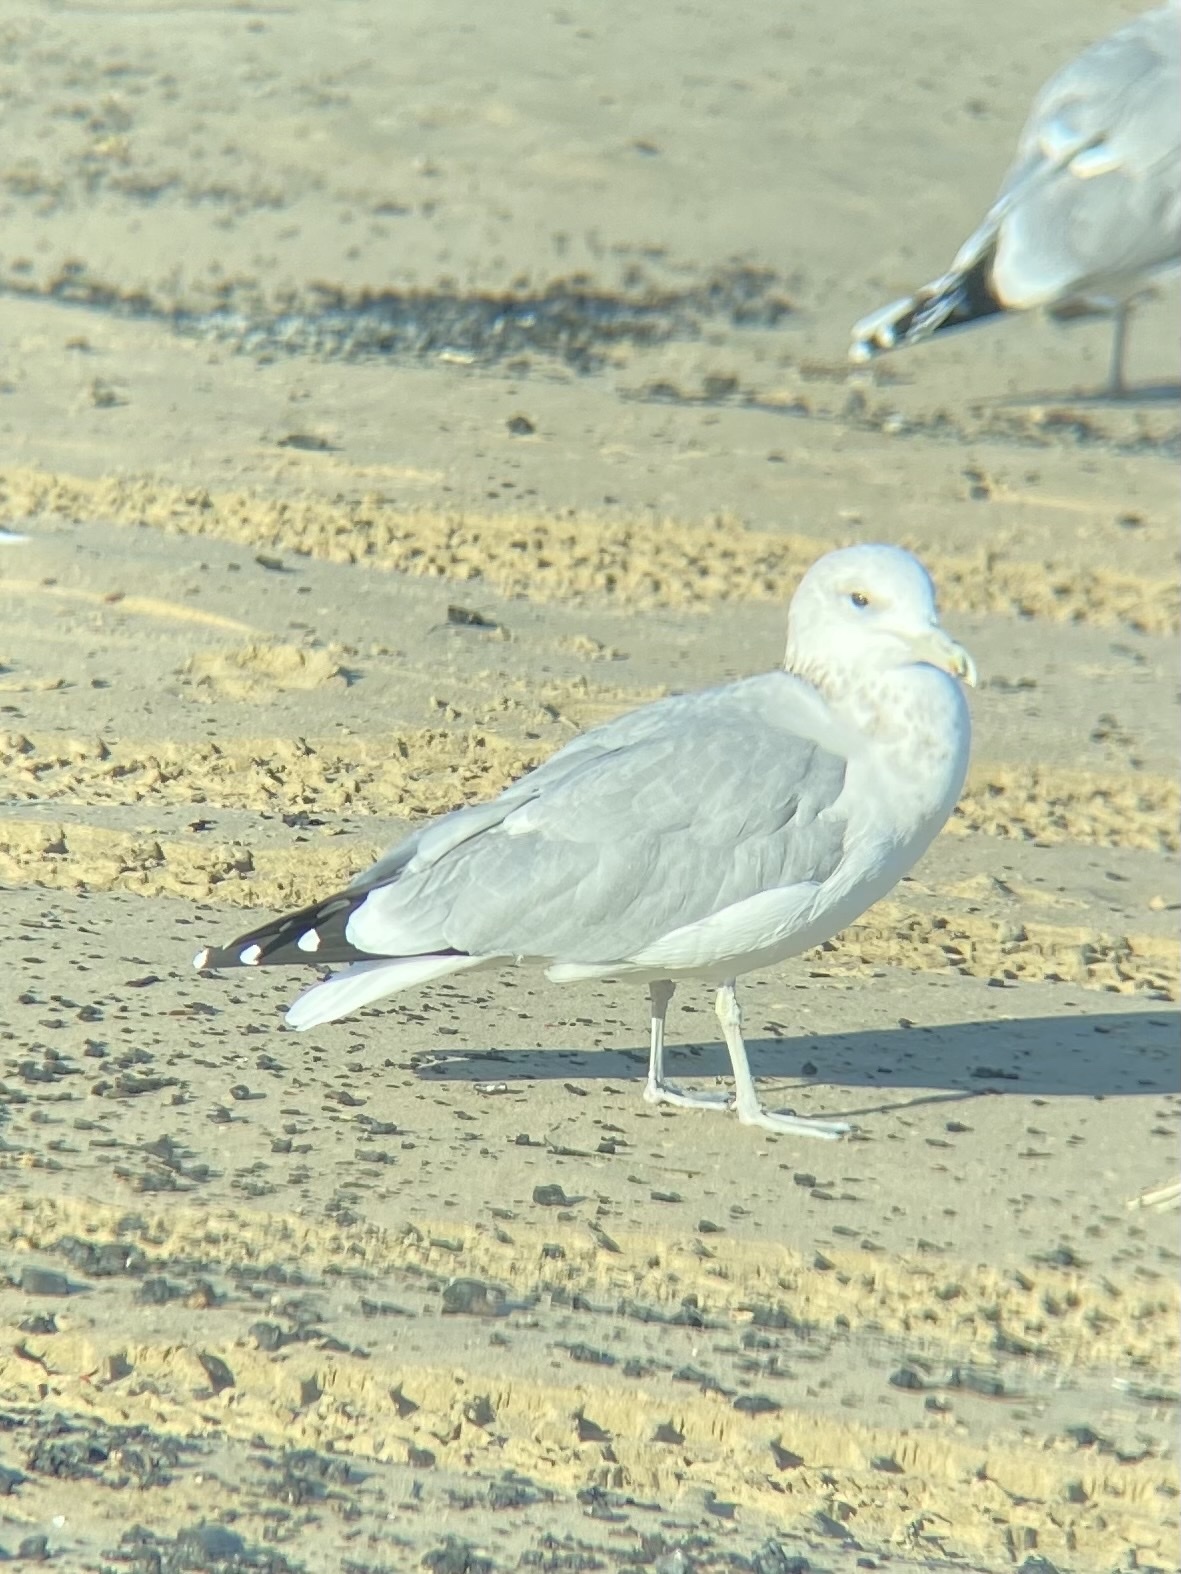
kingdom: Animalia
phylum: Chordata
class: Aves
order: Charadriiformes
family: Laridae
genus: Larus
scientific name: Larus californicus
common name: California gull
